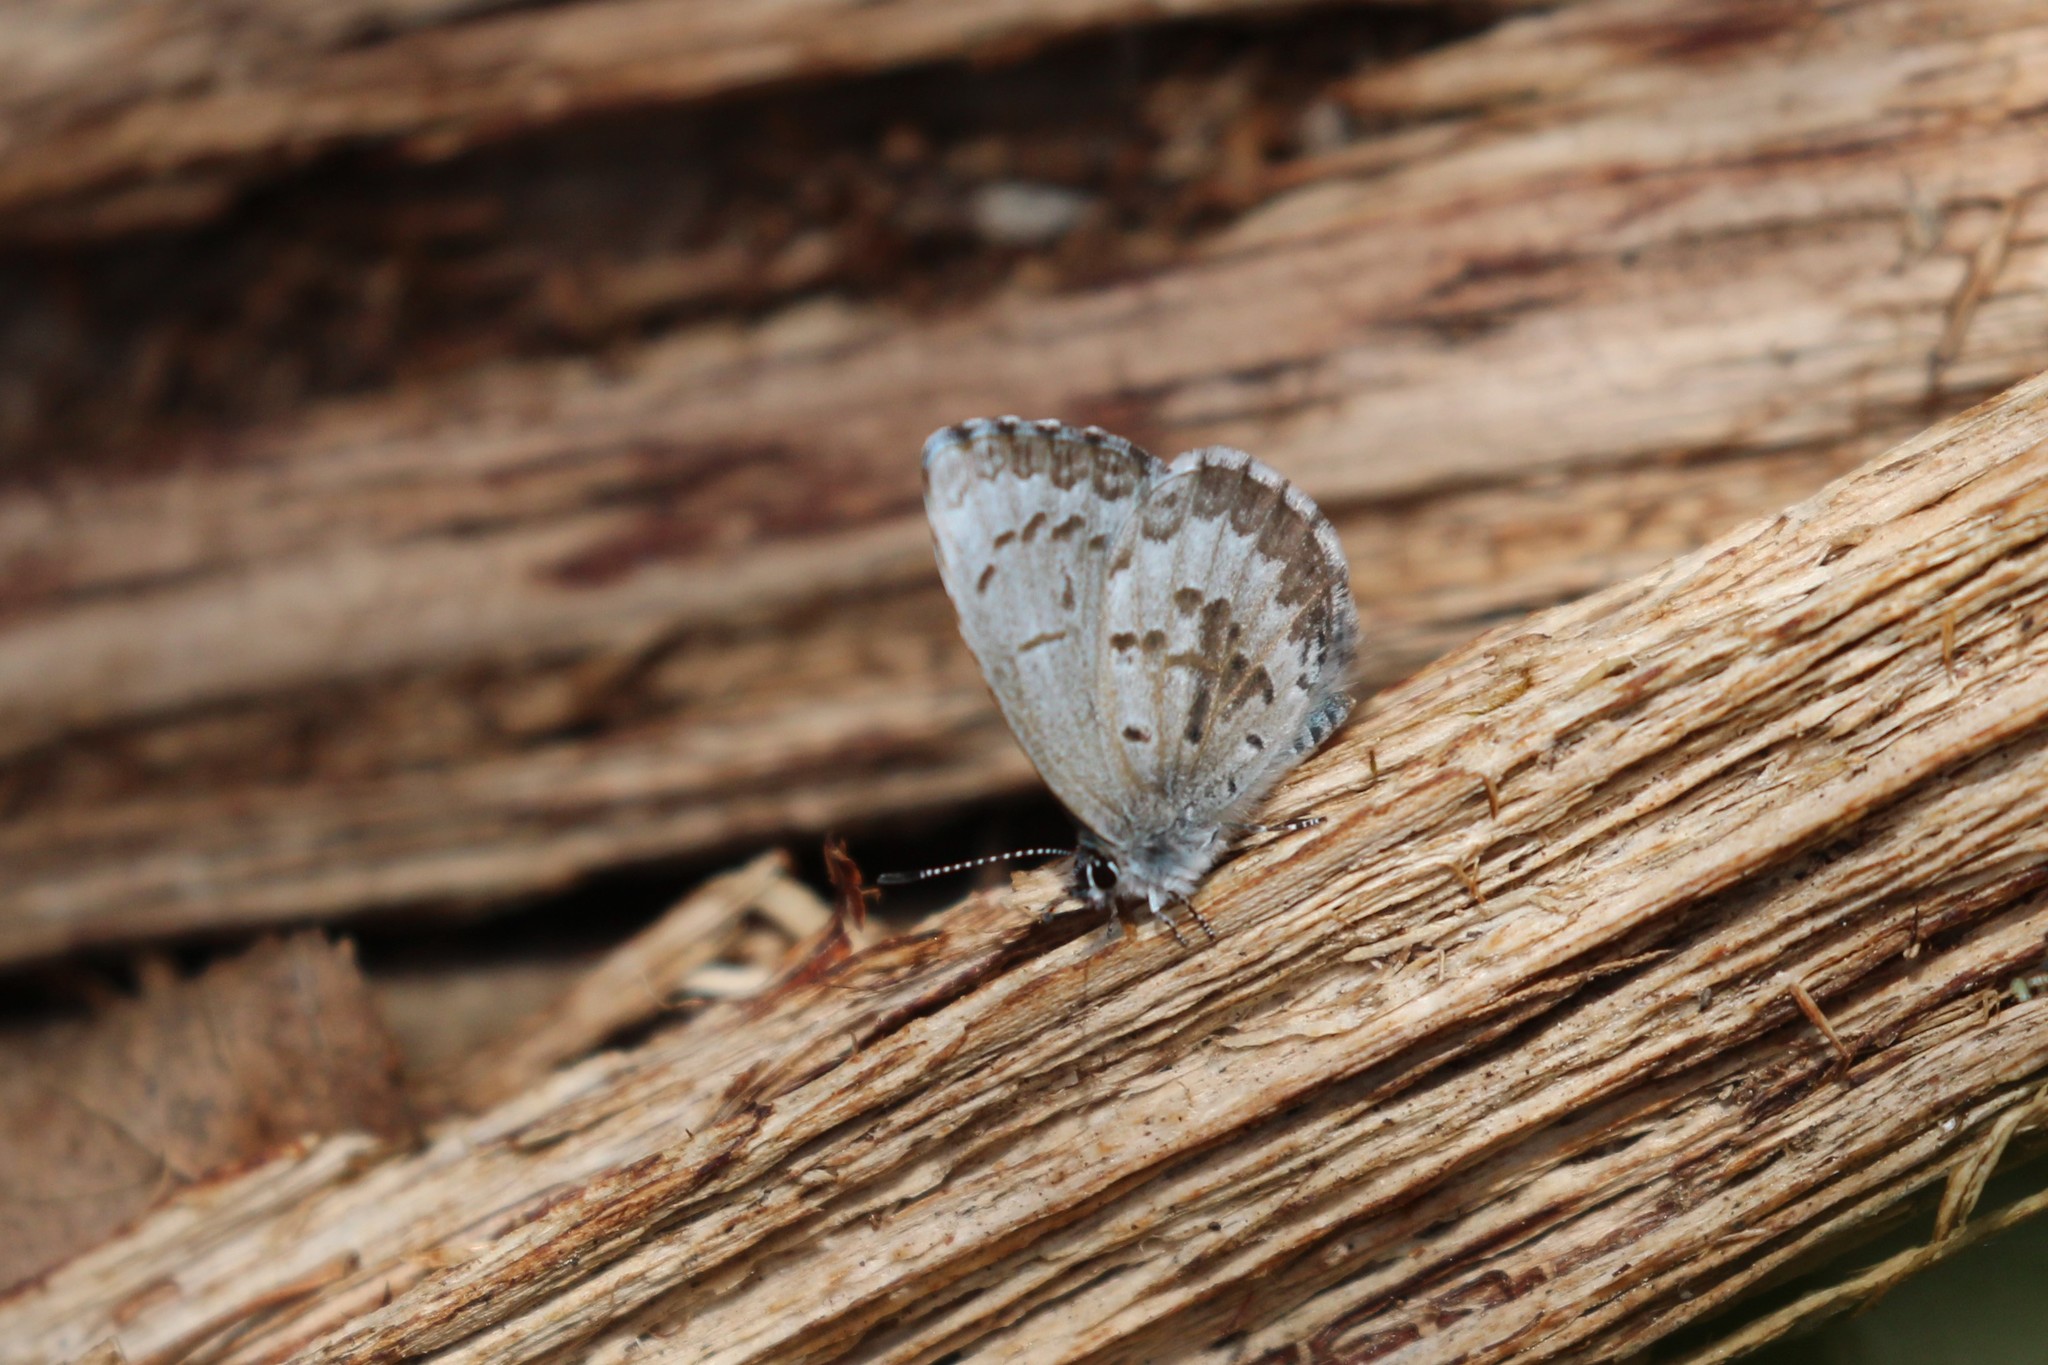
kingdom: Animalia
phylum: Arthropoda
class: Insecta
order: Lepidoptera
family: Lycaenidae
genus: Celastrina
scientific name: Celastrina lucia
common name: Lucia azure
